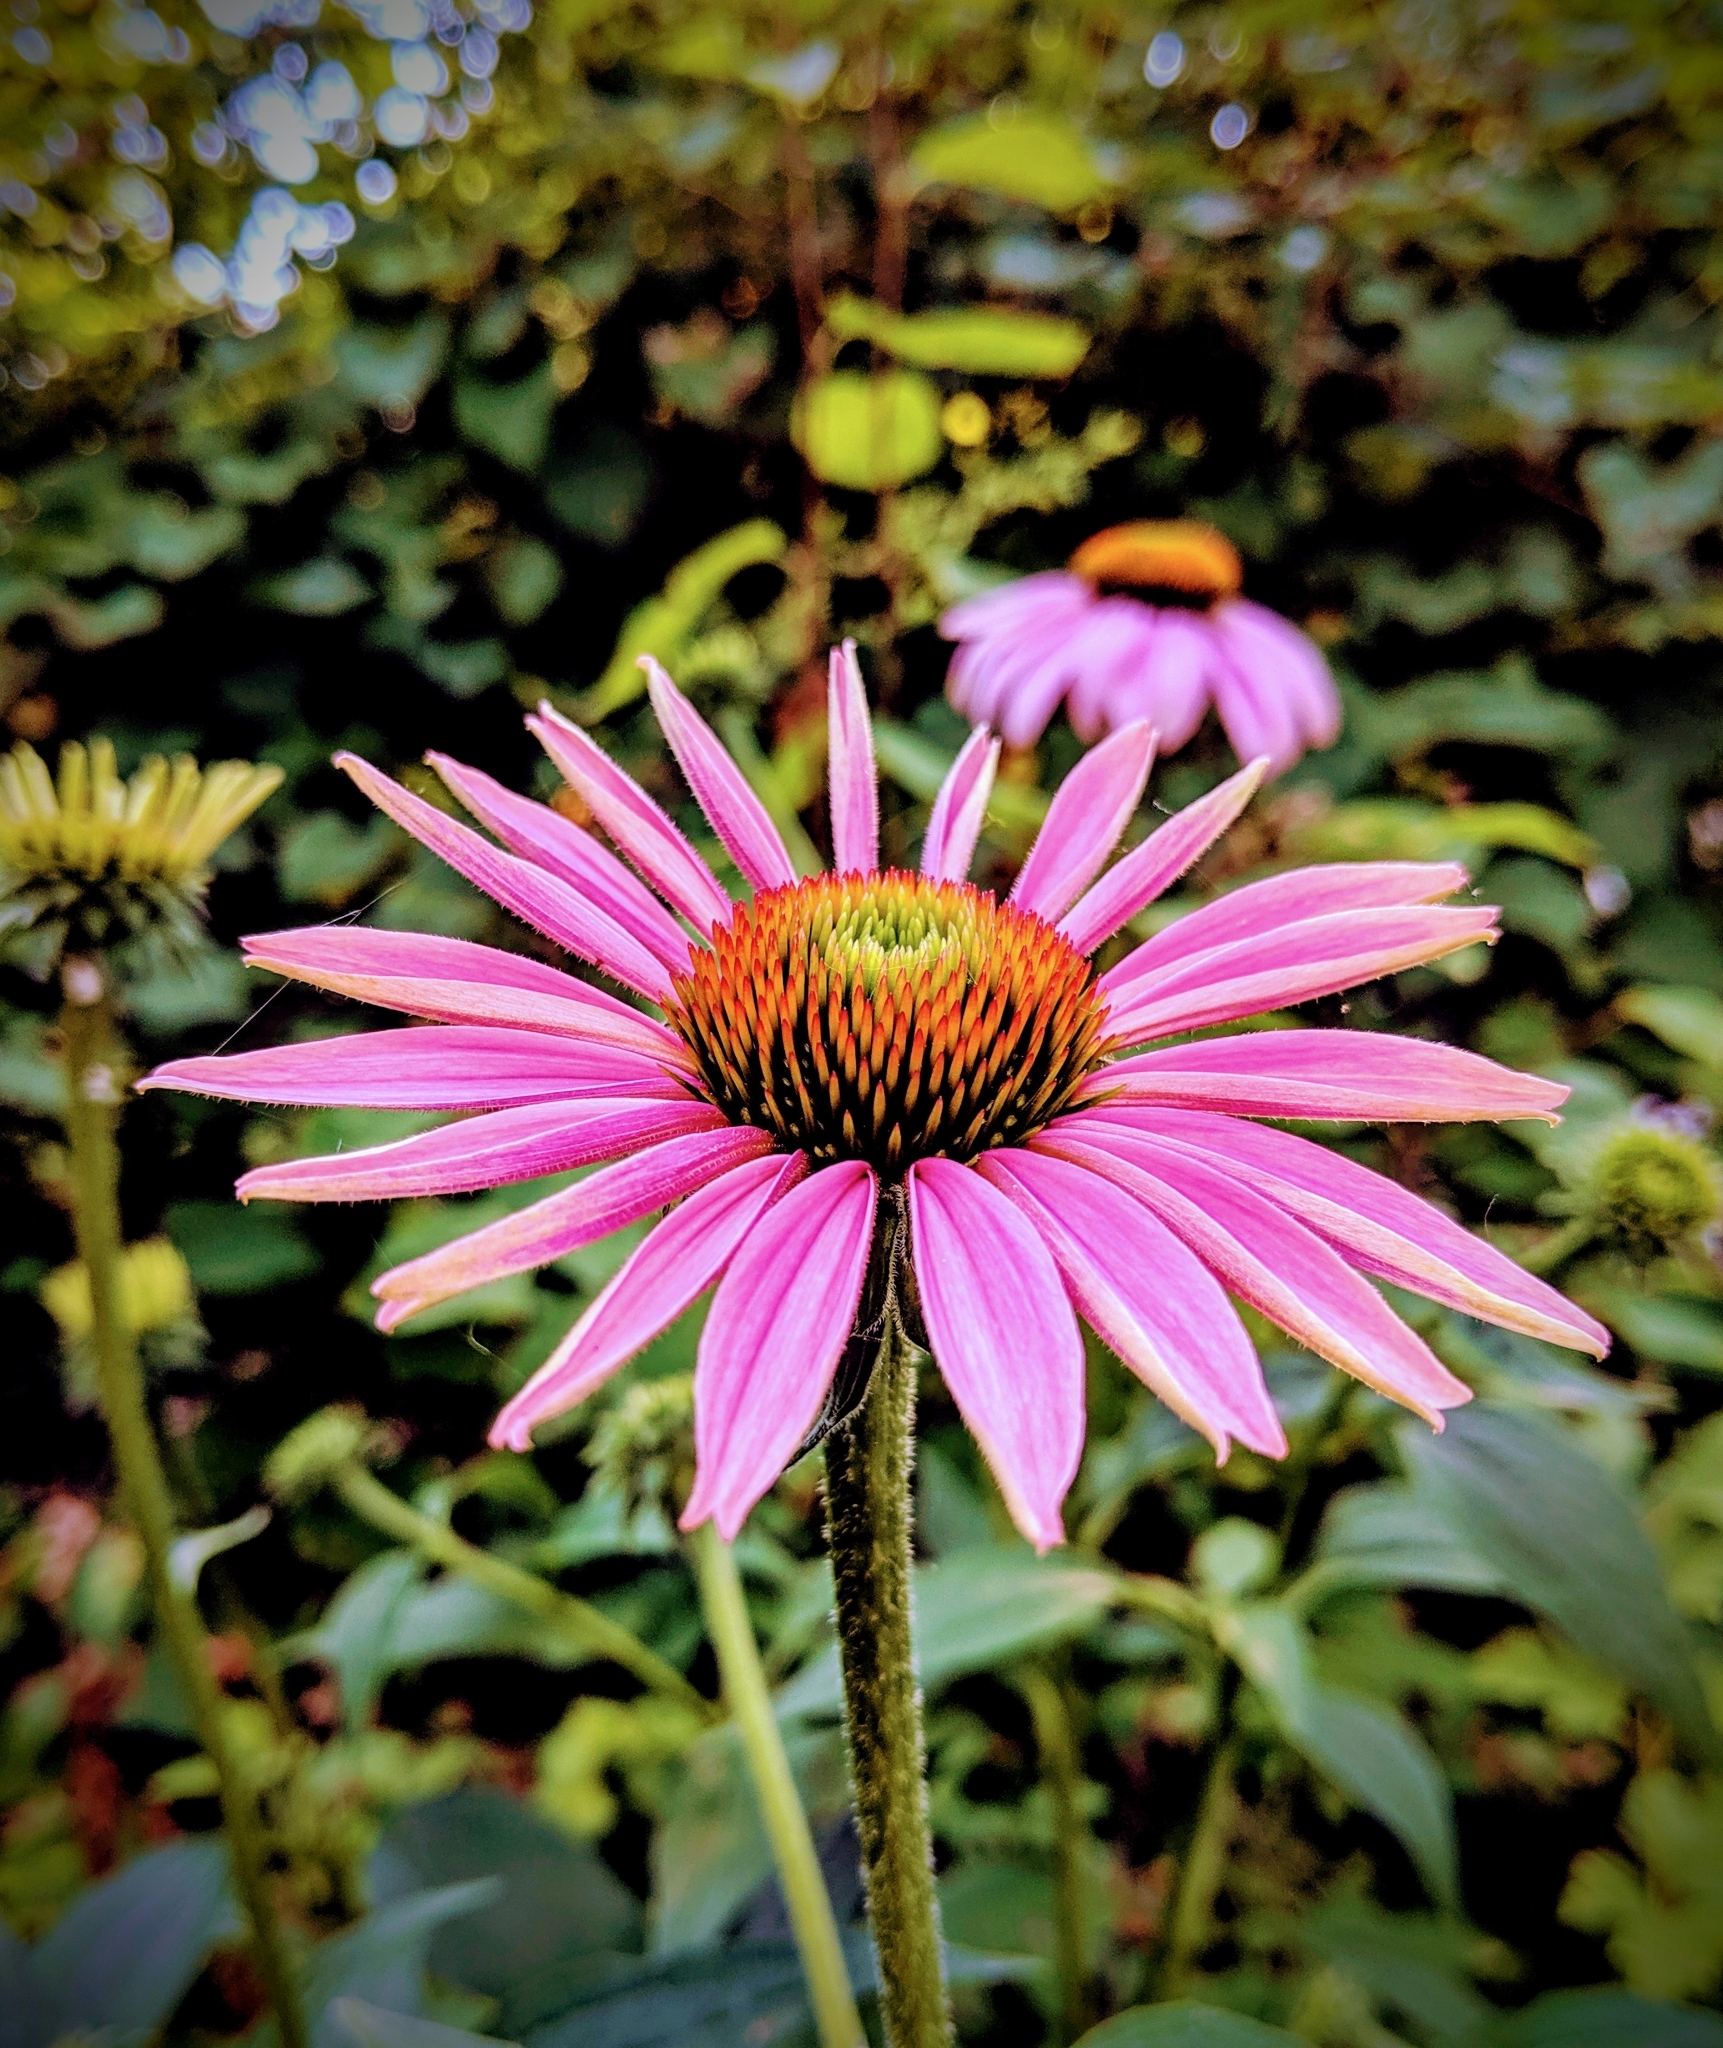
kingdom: Plantae
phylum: Tracheophyta
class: Magnoliopsida
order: Asterales
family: Asteraceae
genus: Echinacea
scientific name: Echinacea purpurea
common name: Broad-leaved purple coneflower
